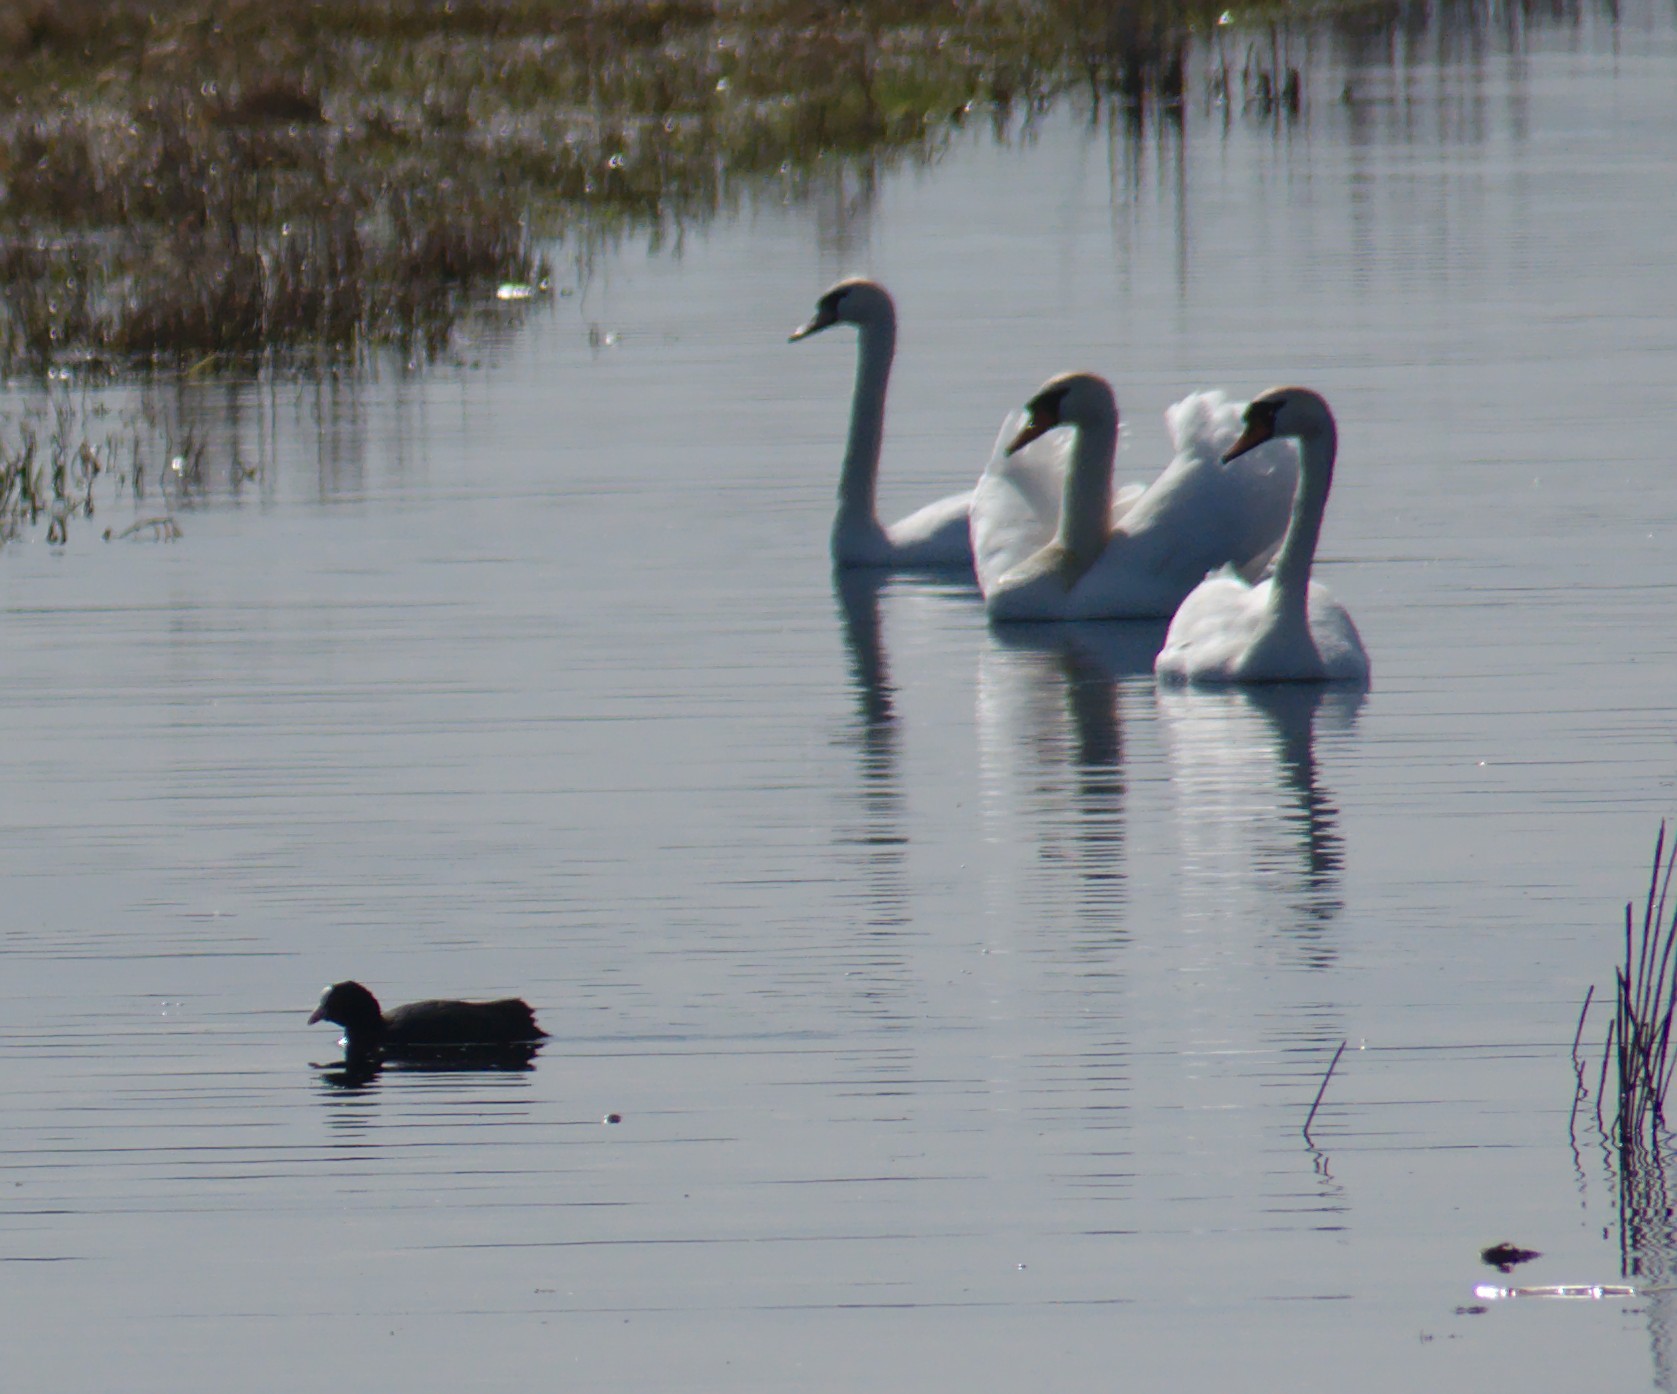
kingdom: Animalia
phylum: Chordata
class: Aves
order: Gruiformes
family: Rallidae
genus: Fulica
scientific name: Fulica atra
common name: Eurasian coot
